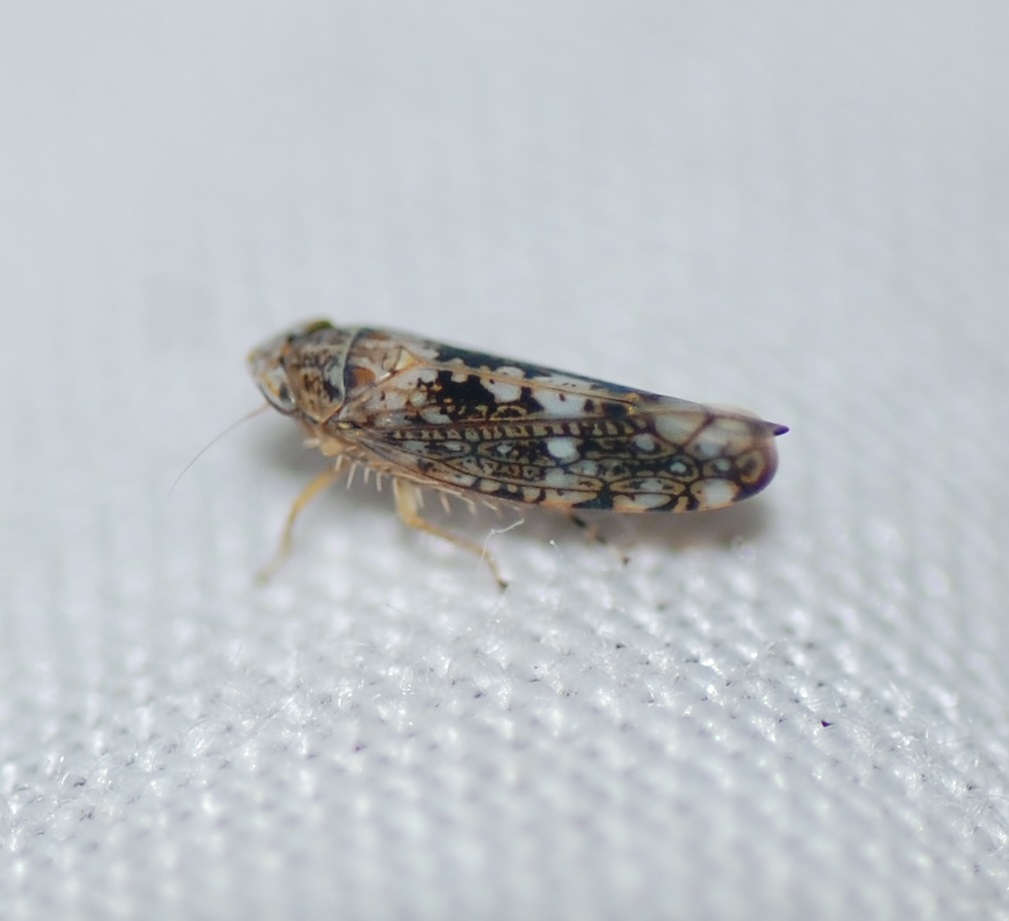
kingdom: Animalia
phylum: Arthropoda
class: Insecta
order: Hemiptera
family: Cicadellidae
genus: Prescottia
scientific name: Prescottia lobata
